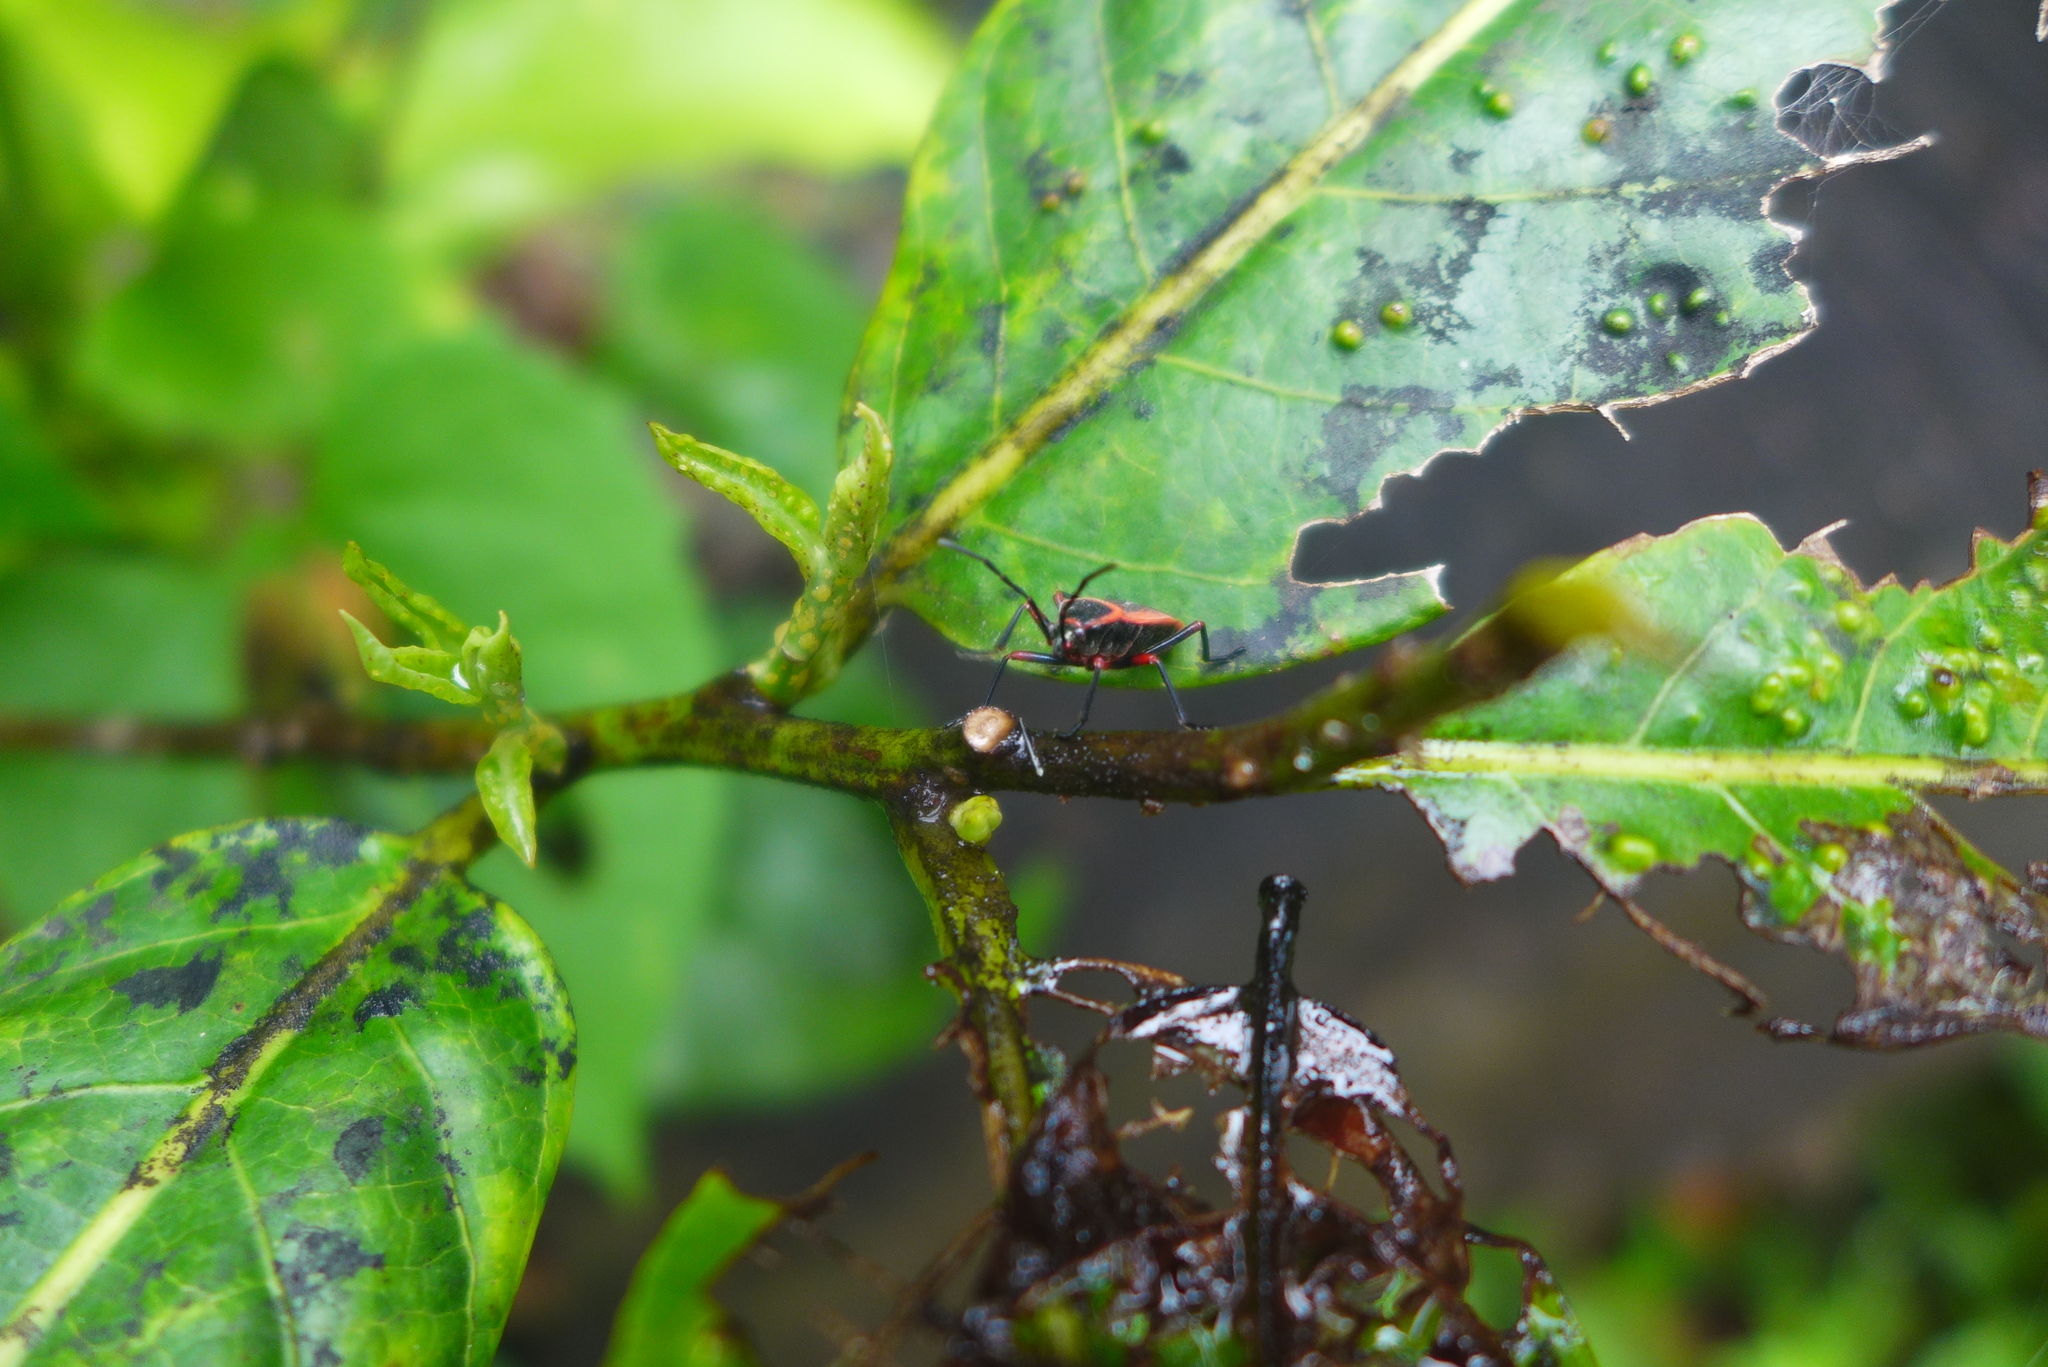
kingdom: Animalia
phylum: Arthropoda
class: Insecta
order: Hemiptera
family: Largidae
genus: Largus
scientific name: Largus obovatus
